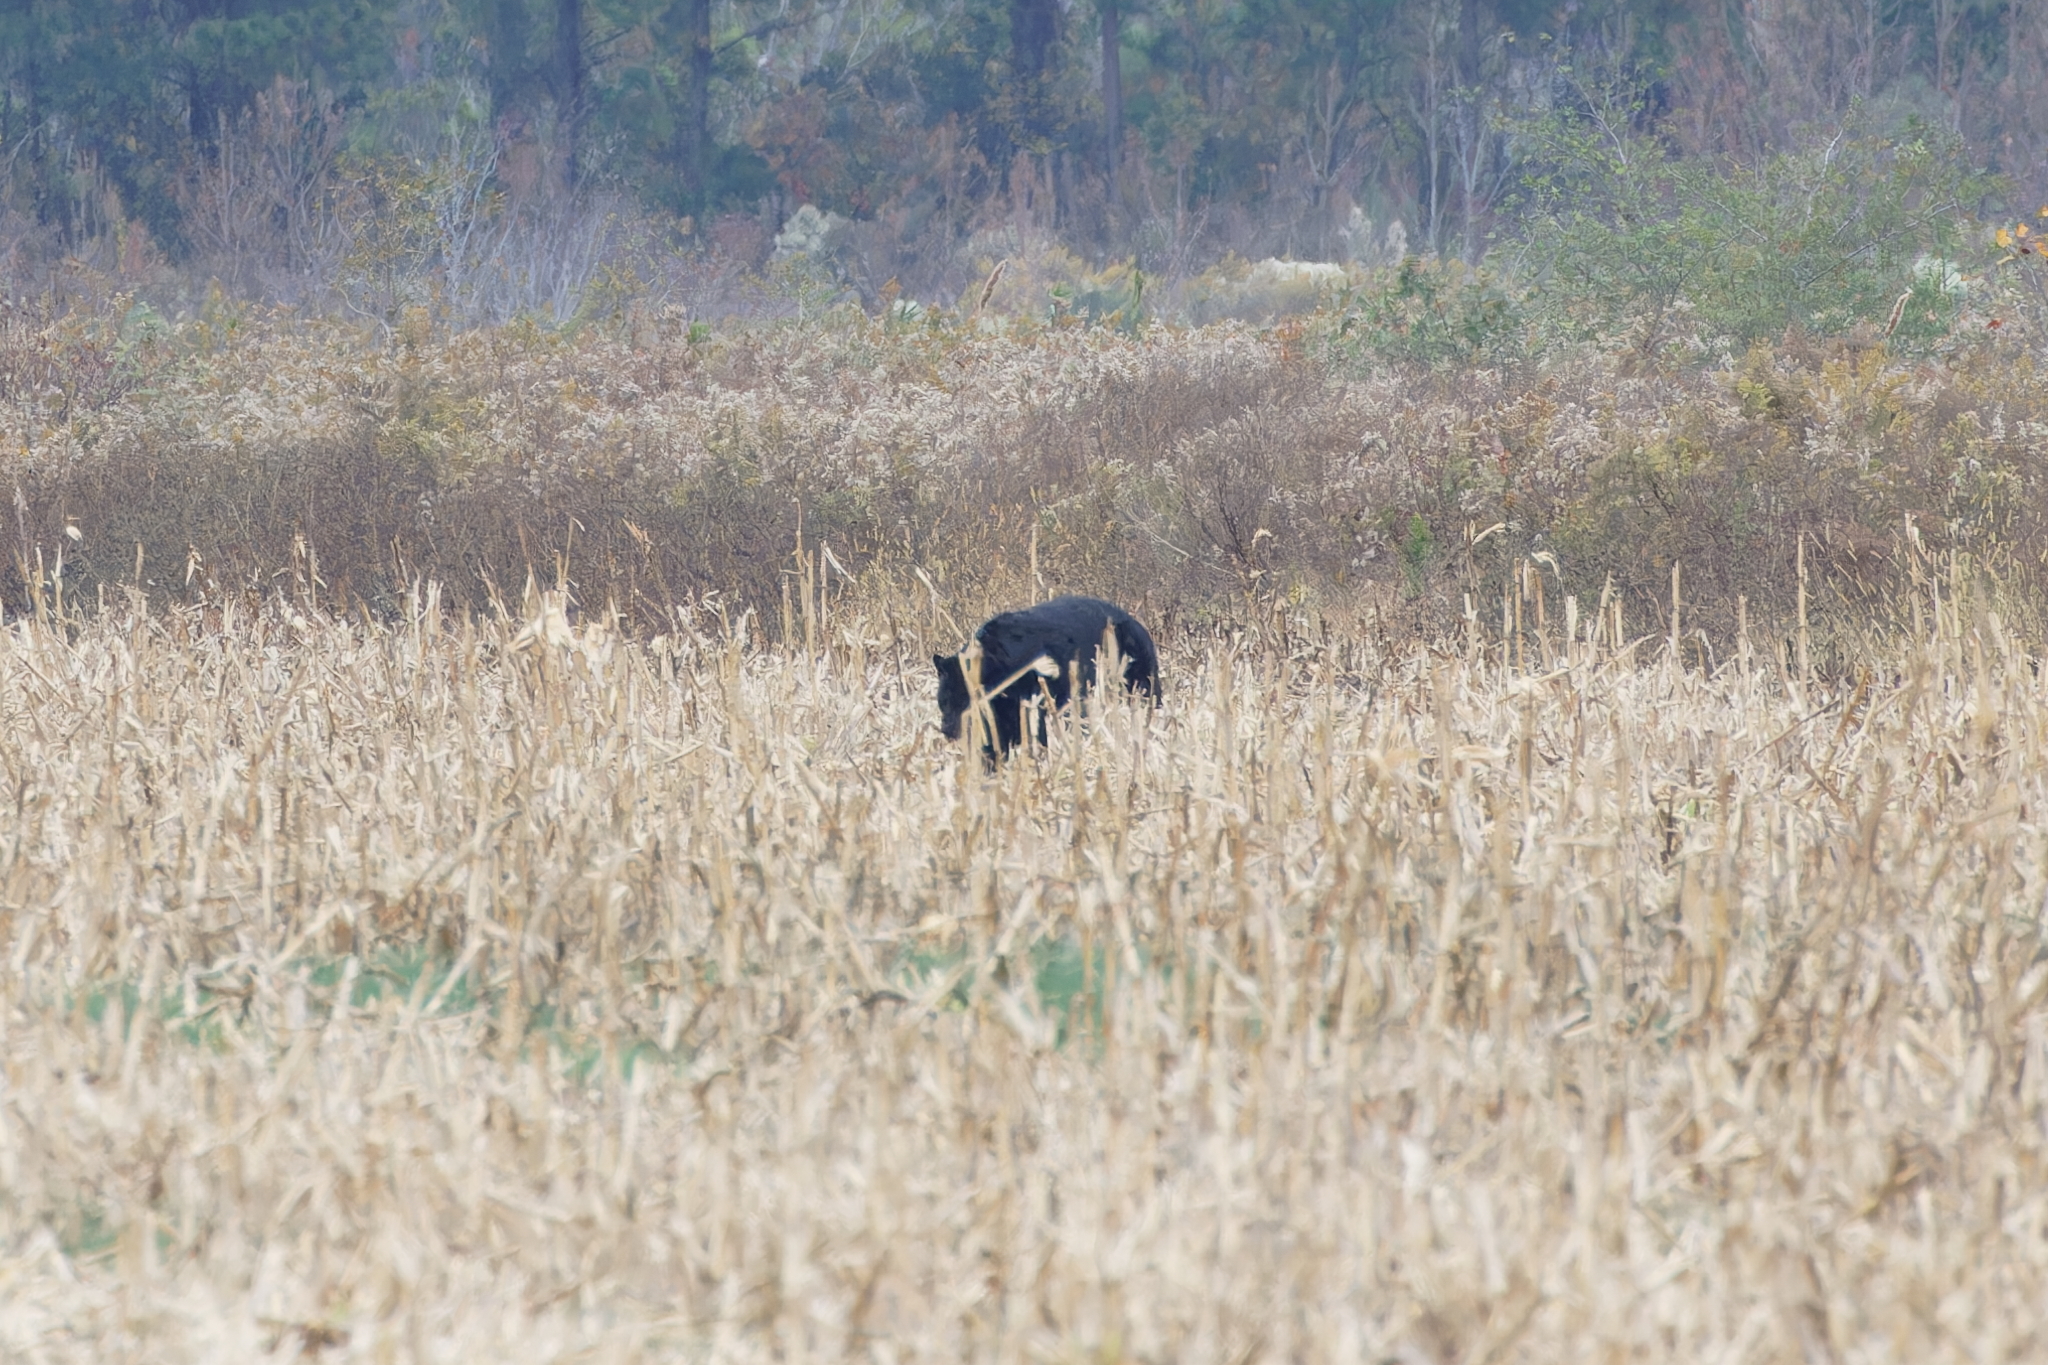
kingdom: Animalia
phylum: Chordata
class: Mammalia
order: Carnivora
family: Ursidae
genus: Ursus
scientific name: Ursus americanus
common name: American black bear
